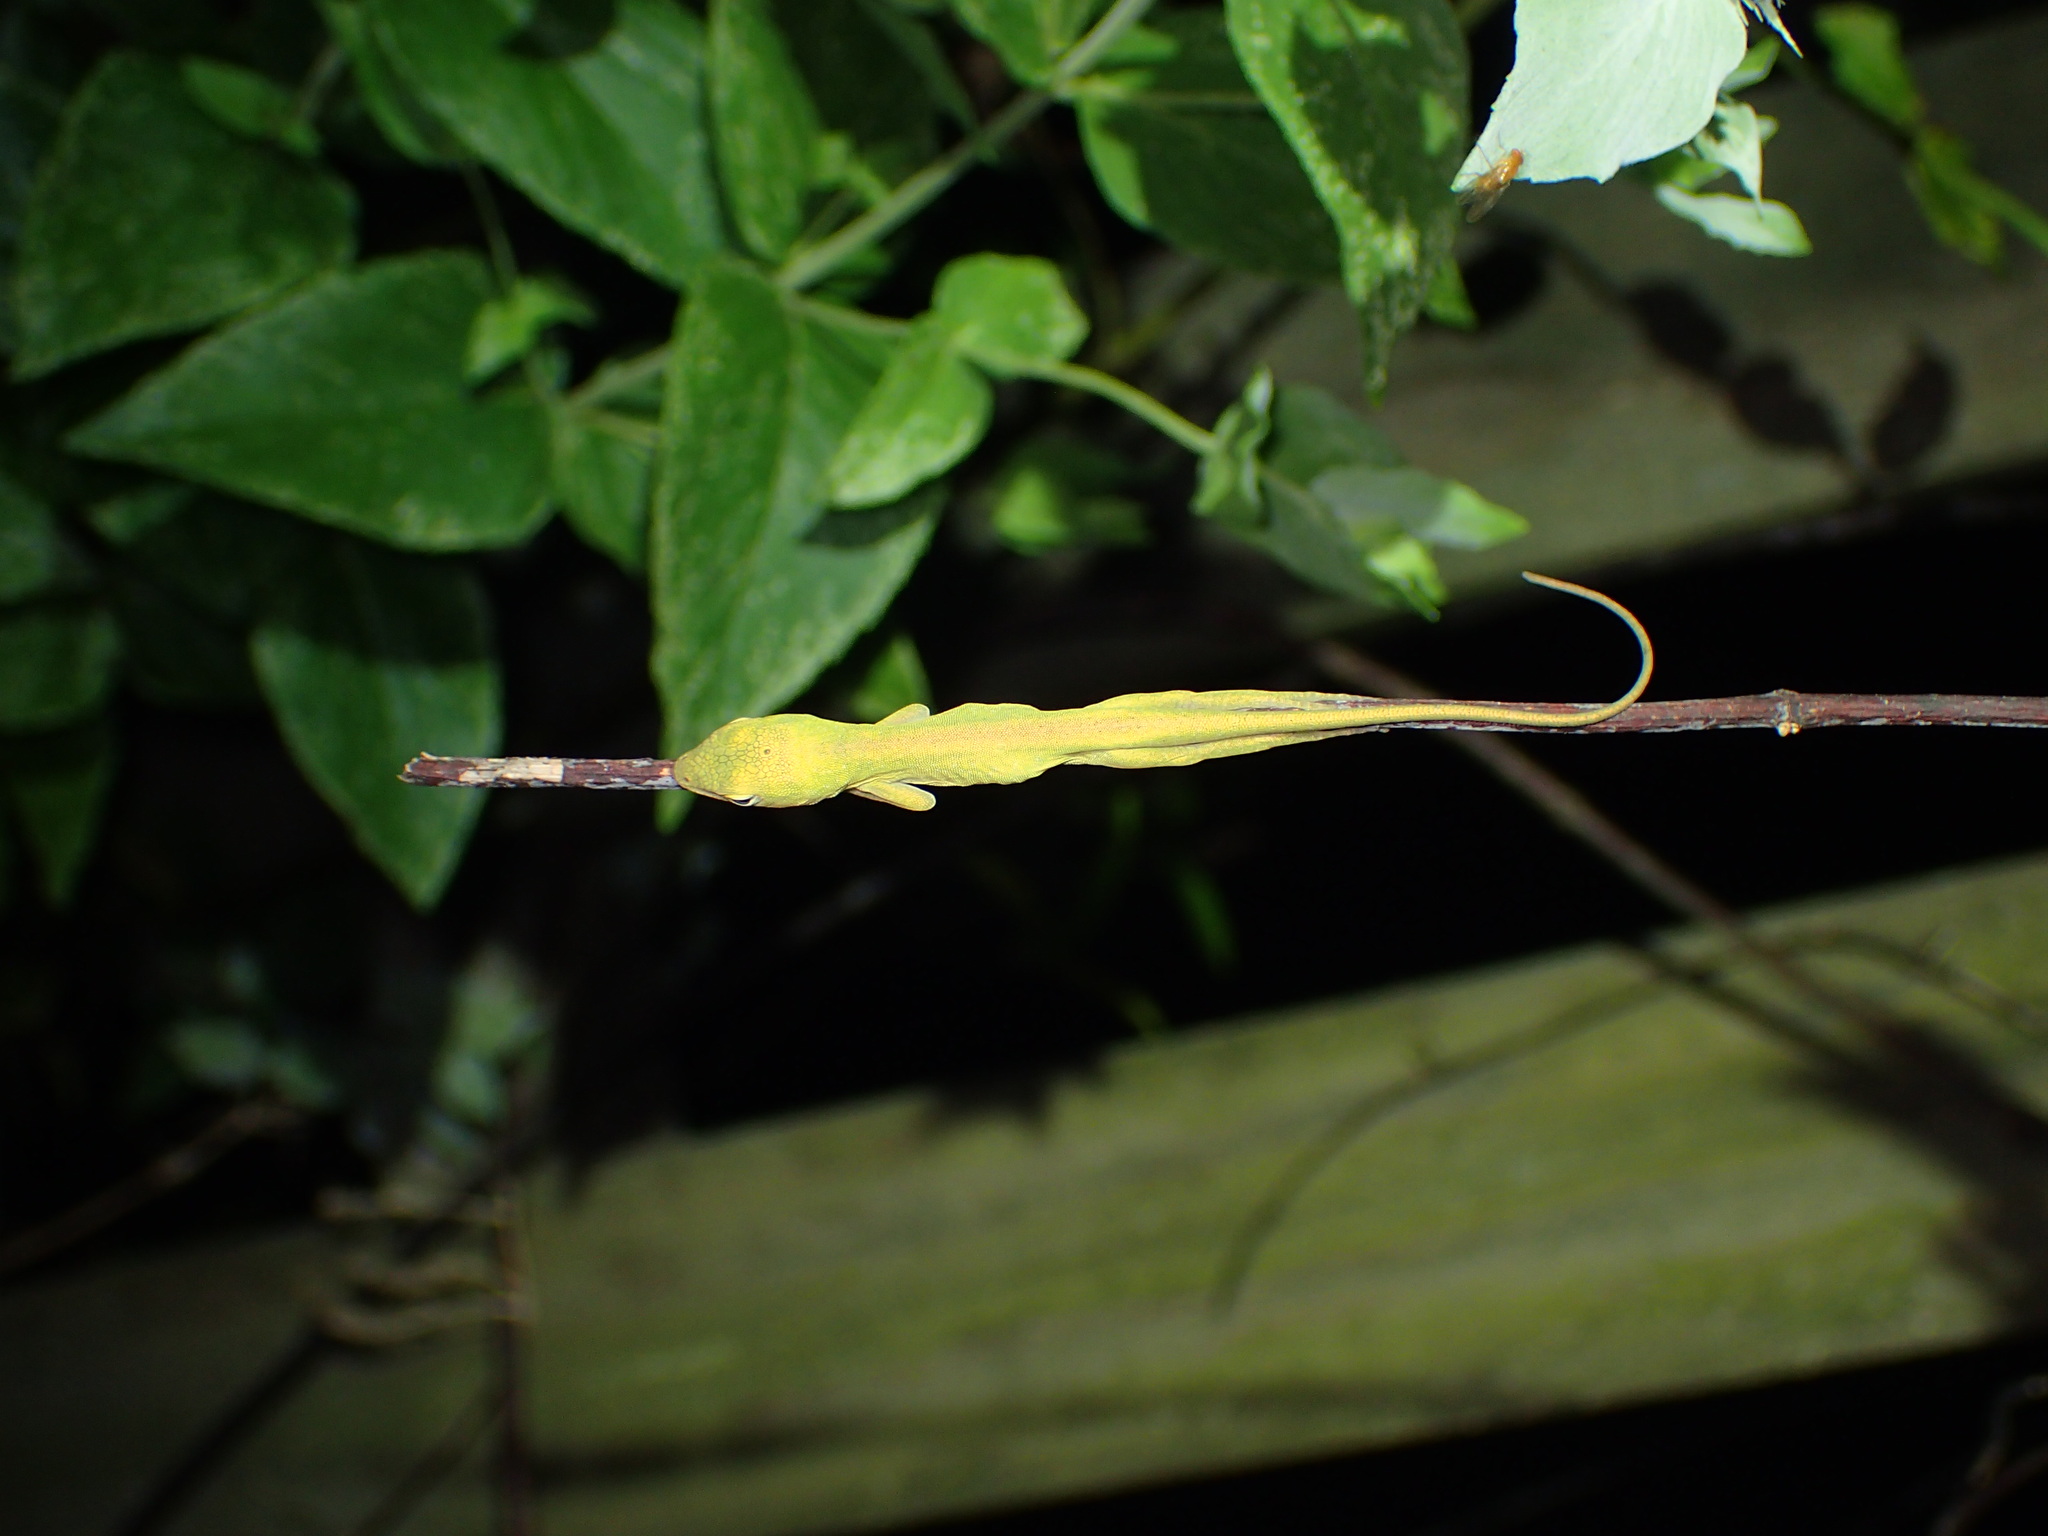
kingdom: Animalia
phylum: Chordata
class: Squamata
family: Dactyloidae
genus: Anolis
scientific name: Anolis carolinensis
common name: Green anole
